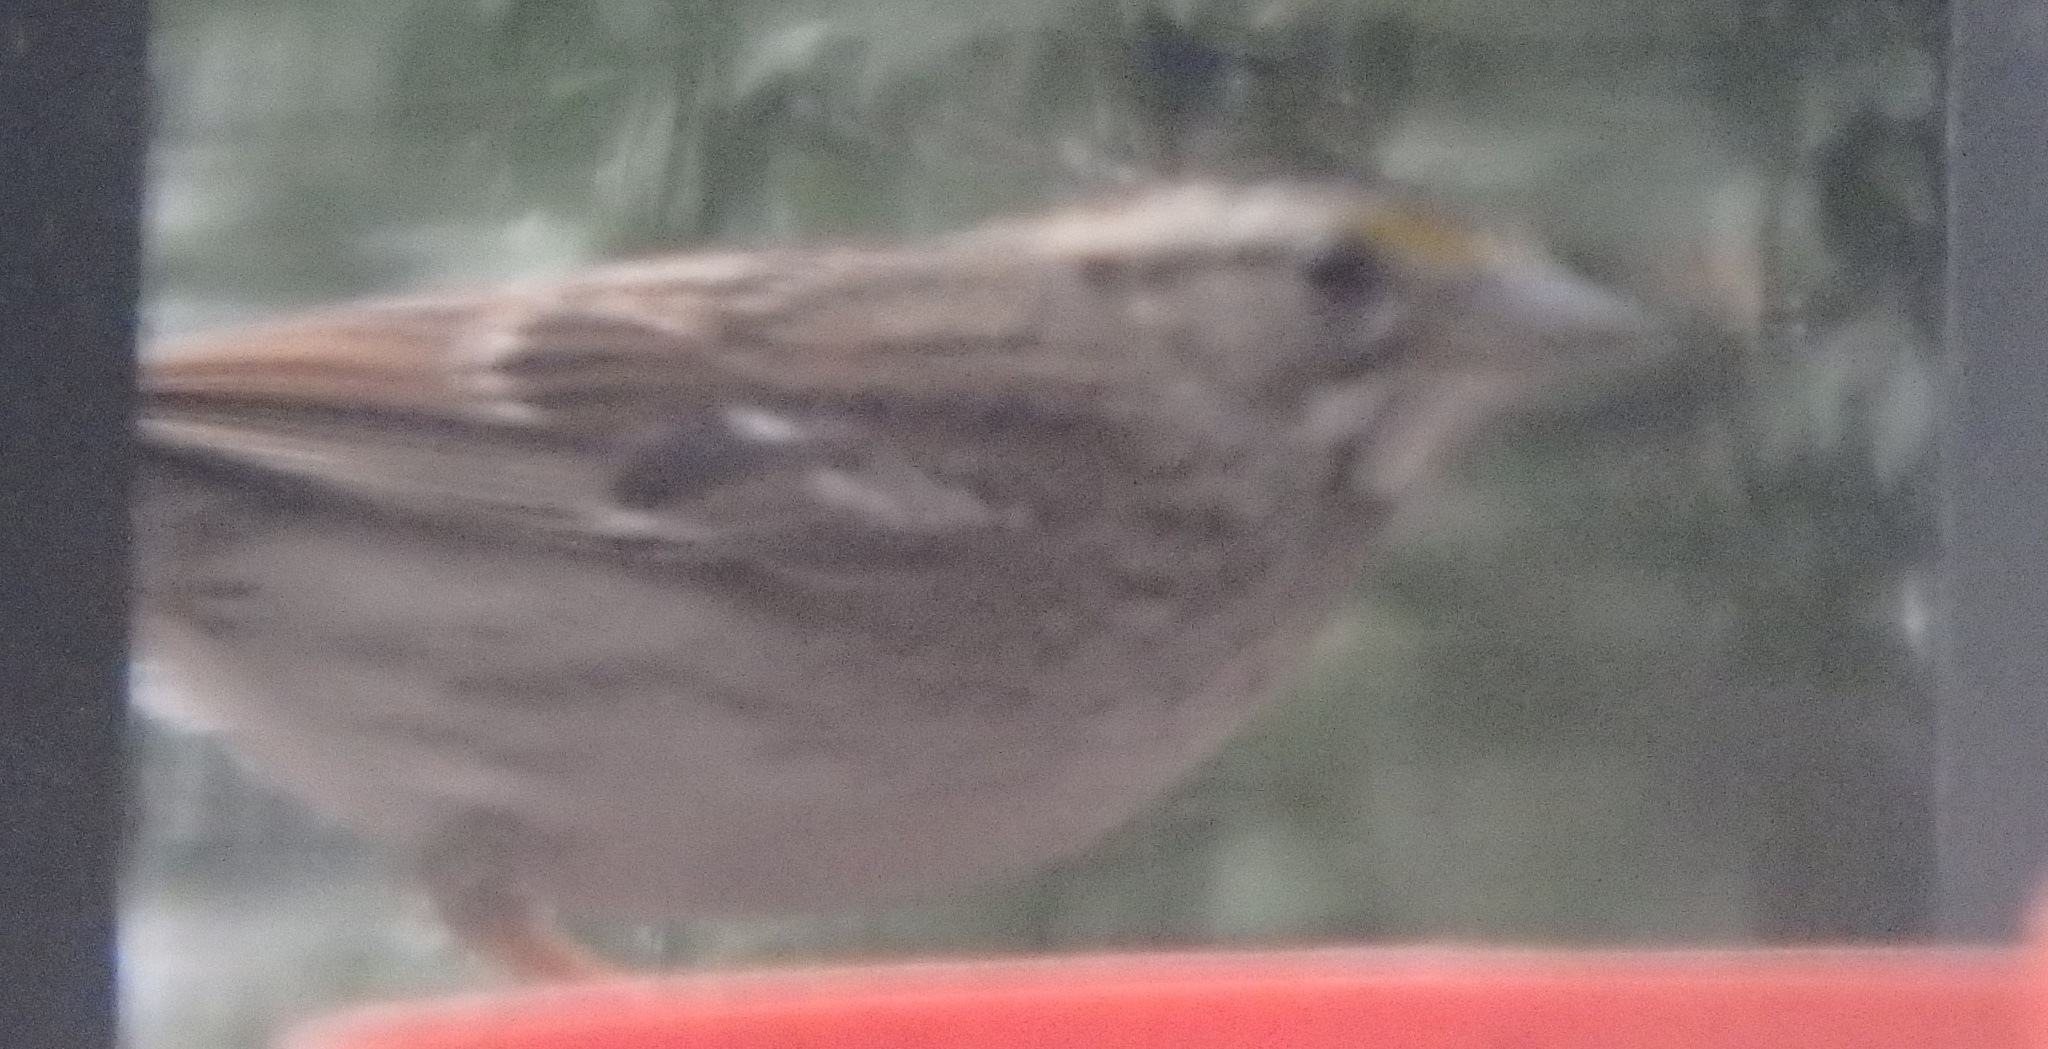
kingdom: Animalia
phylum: Chordata
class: Aves
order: Passeriformes
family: Passerellidae
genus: Zonotrichia
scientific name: Zonotrichia albicollis
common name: White-throated sparrow
